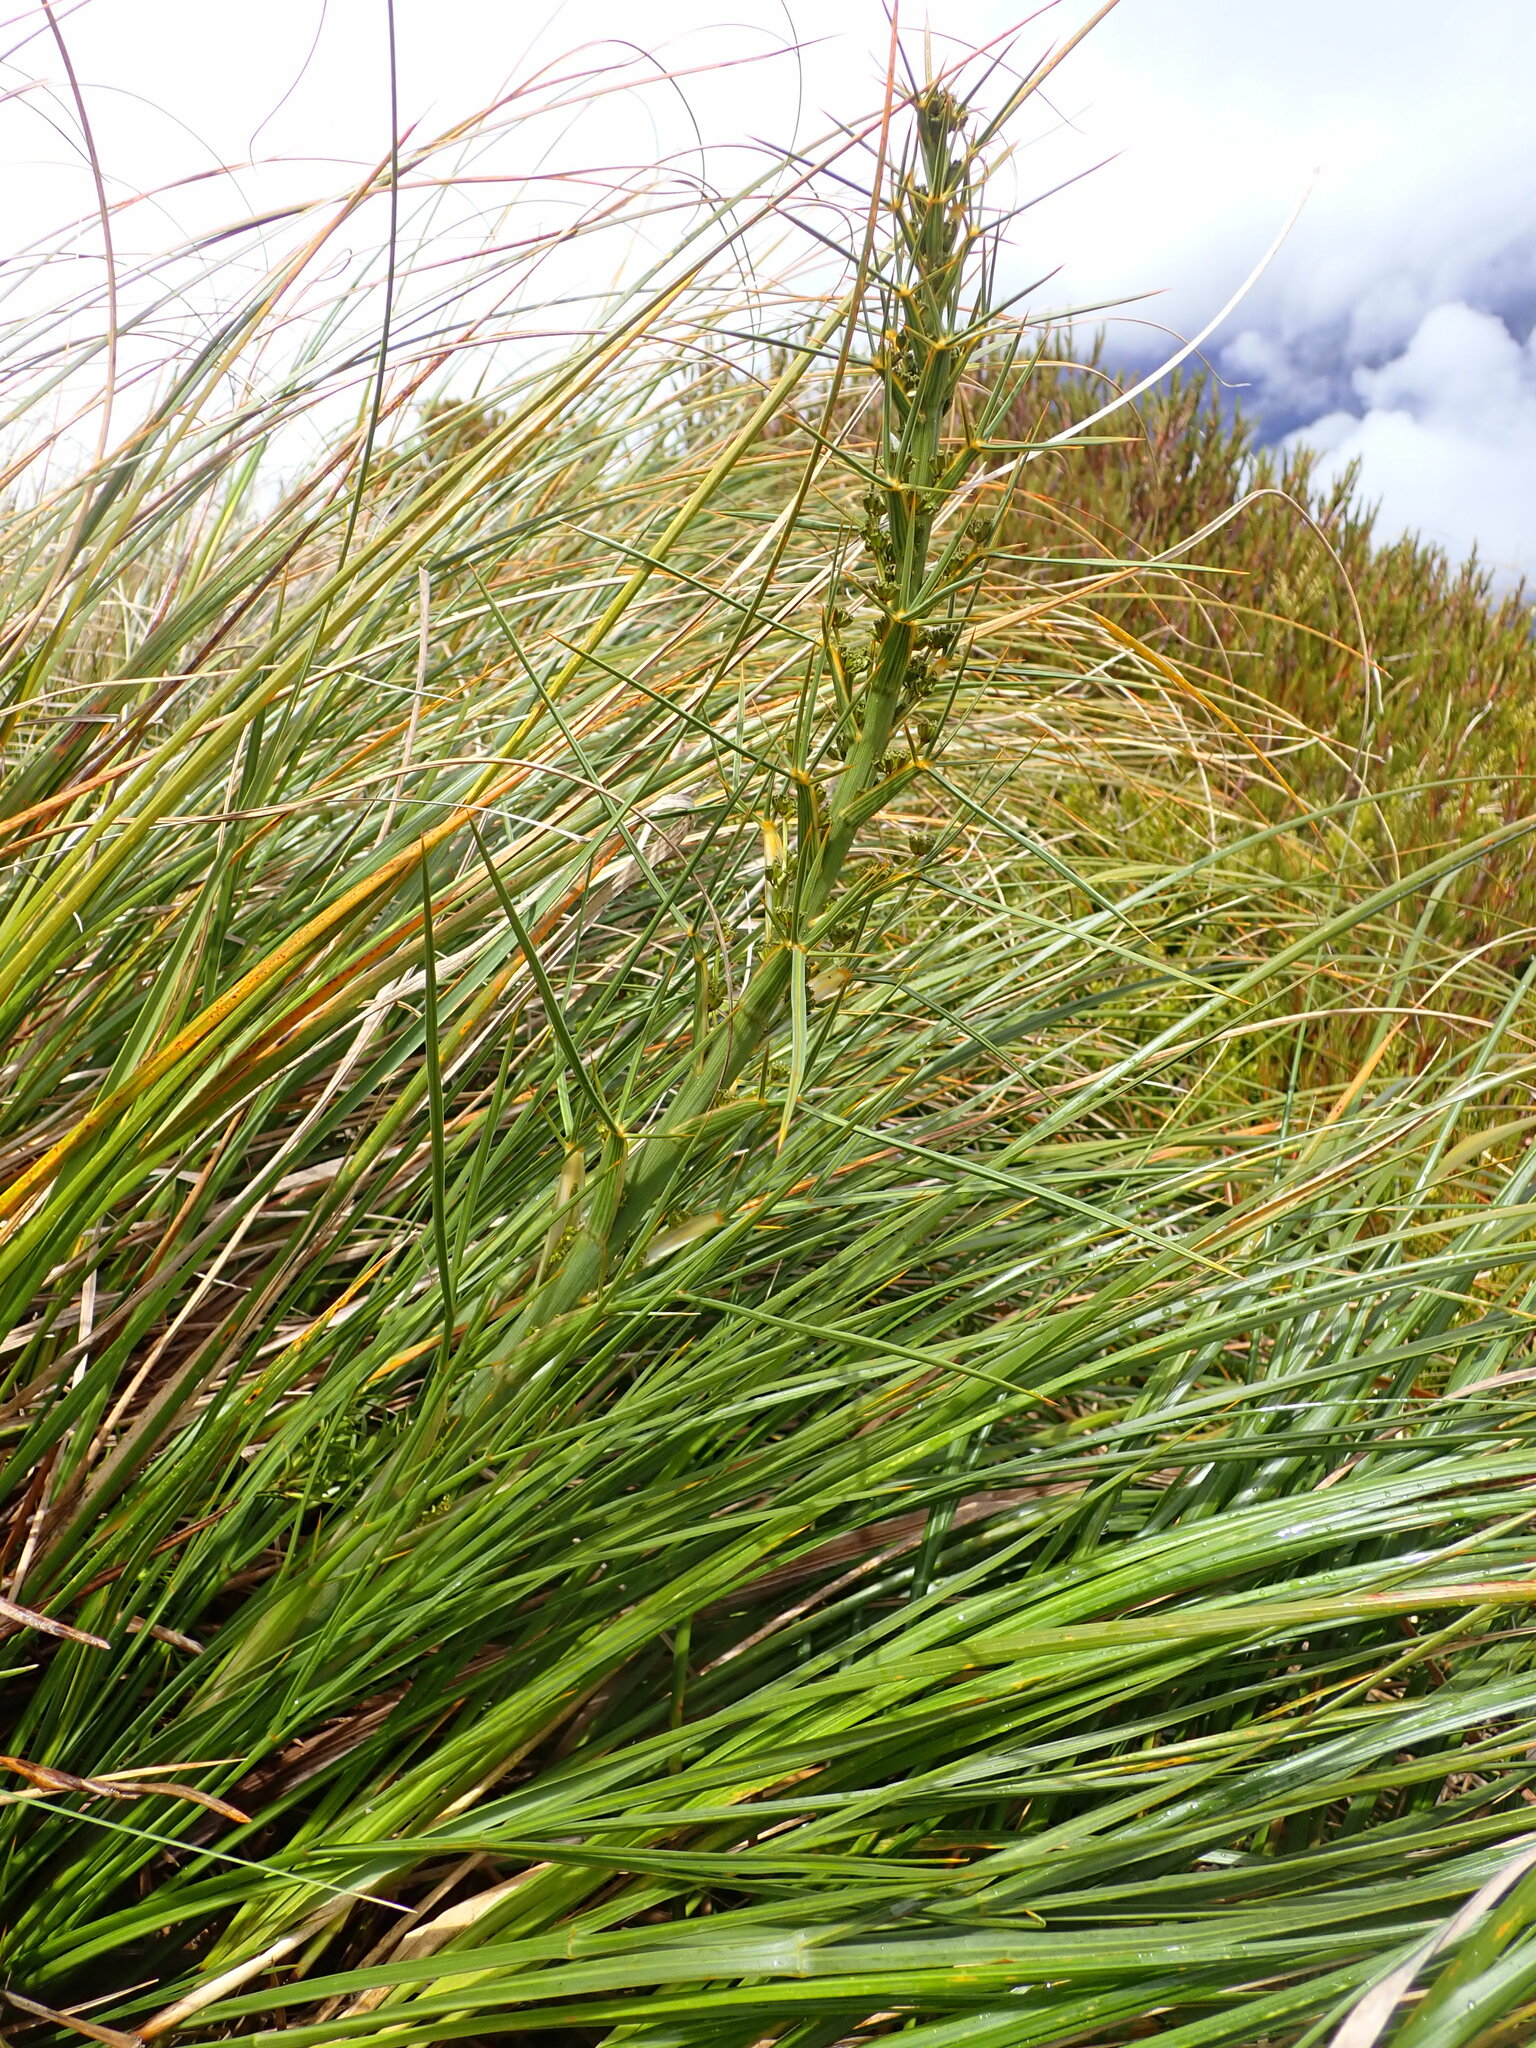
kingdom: Plantae
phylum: Tracheophyta
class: Magnoliopsida
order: Apiales
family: Apiaceae
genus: Aciphylla
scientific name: Aciphylla takahea
